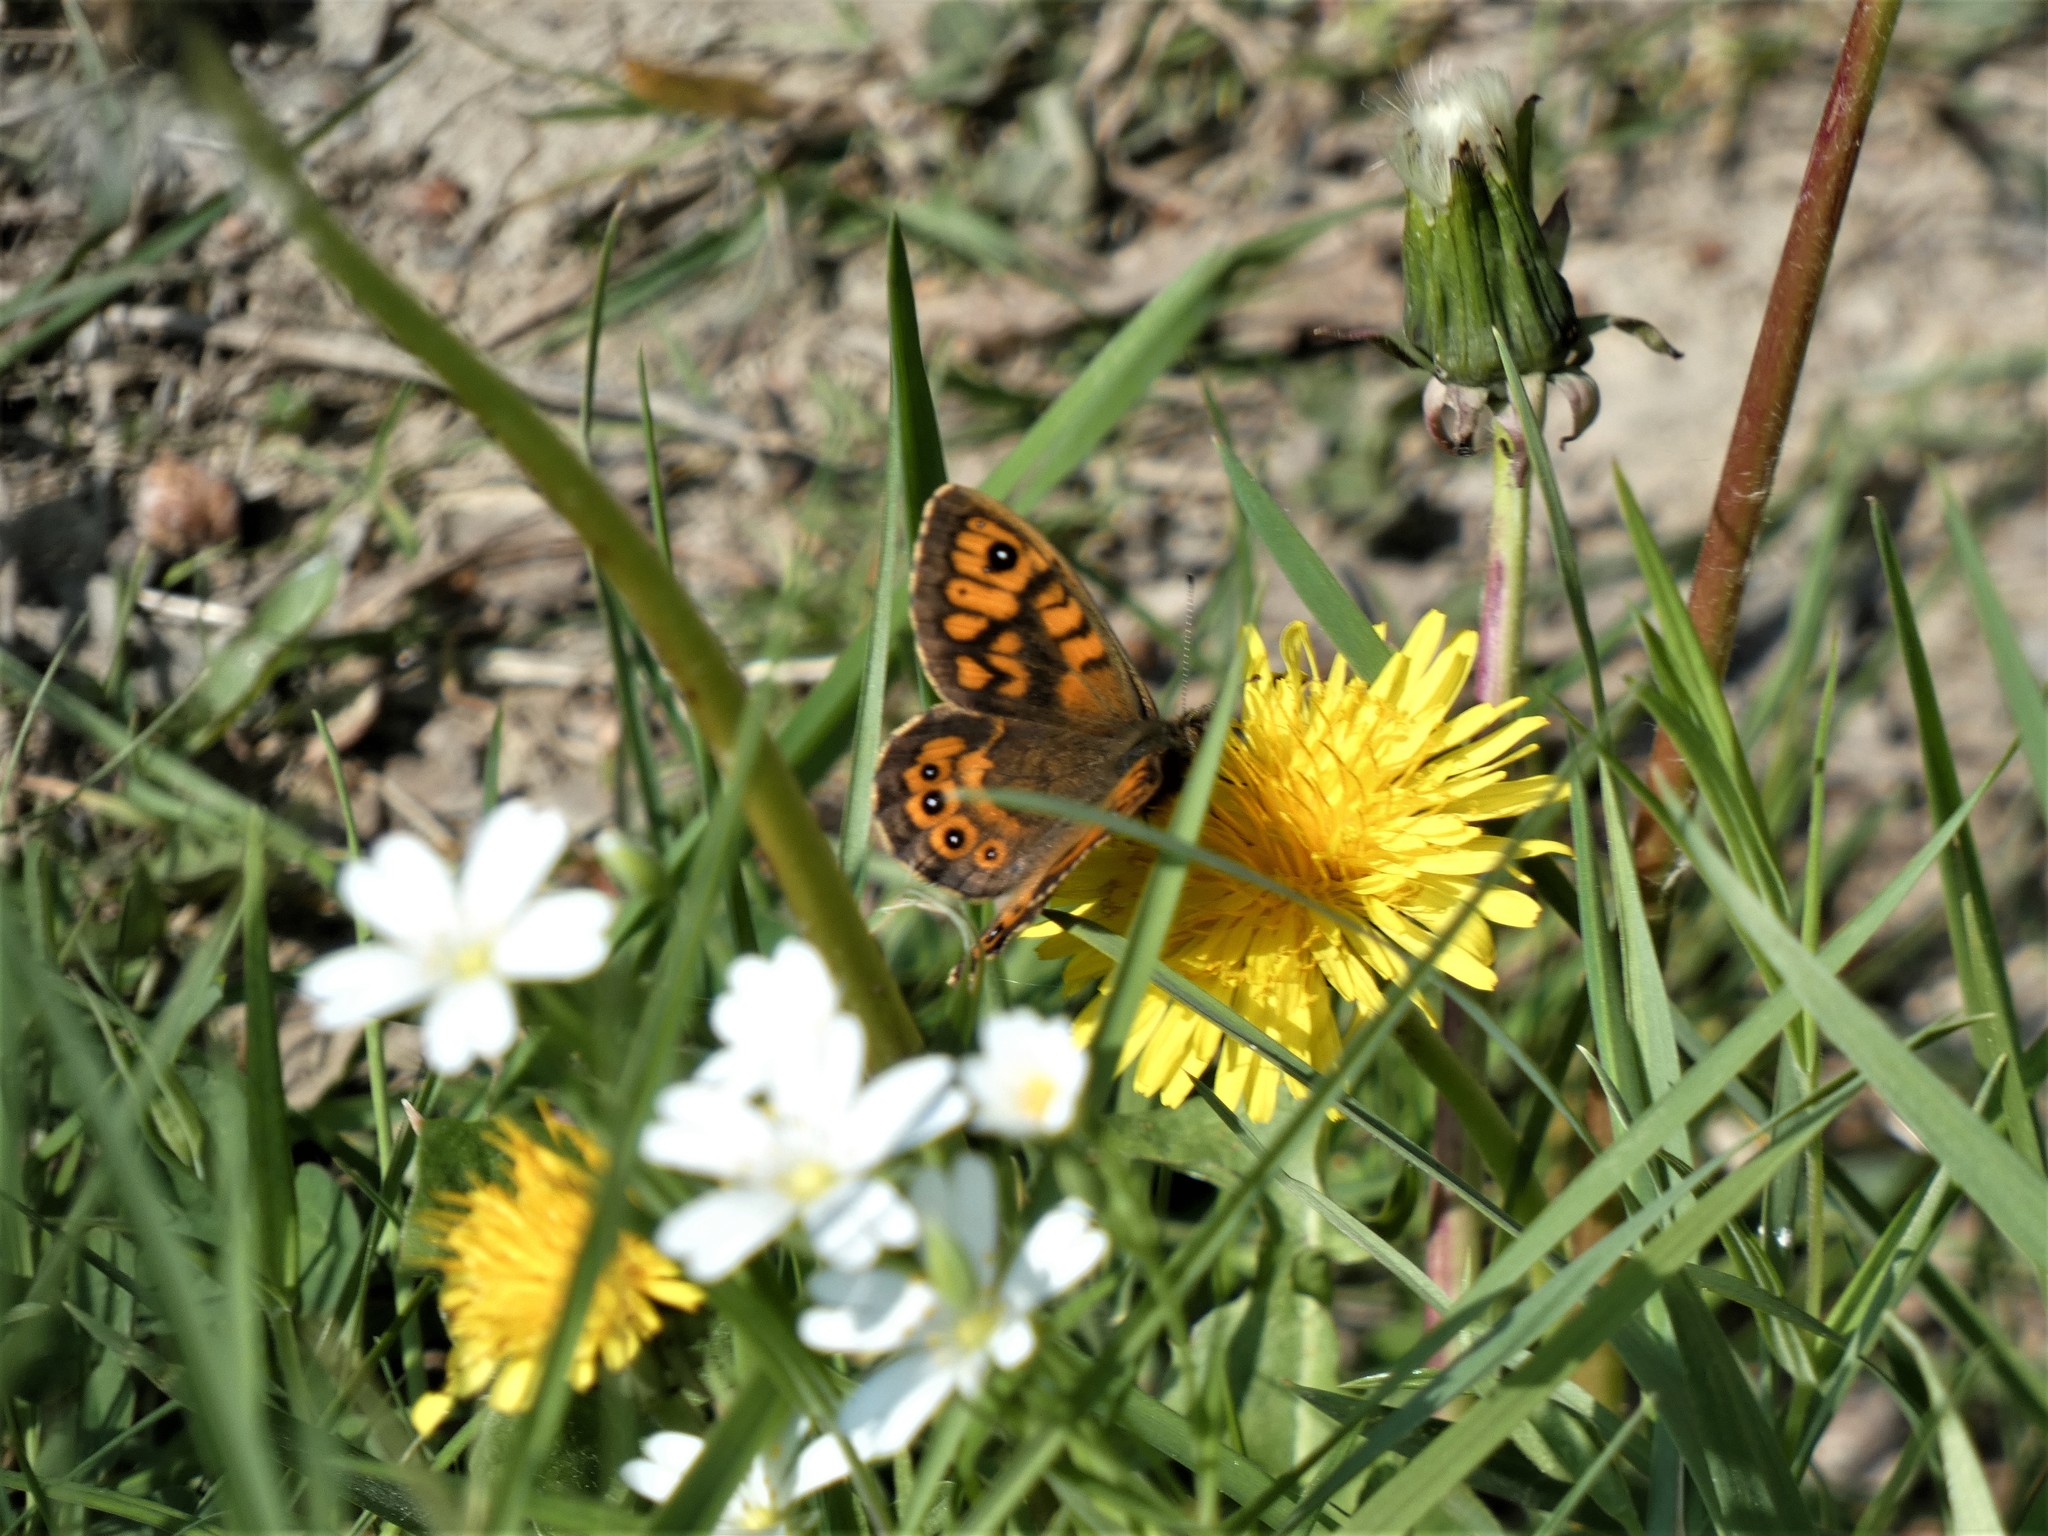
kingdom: Animalia
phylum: Arthropoda
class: Insecta
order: Lepidoptera
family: Nymphalidae
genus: Pararge
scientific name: Pararge Lasiommata megera
